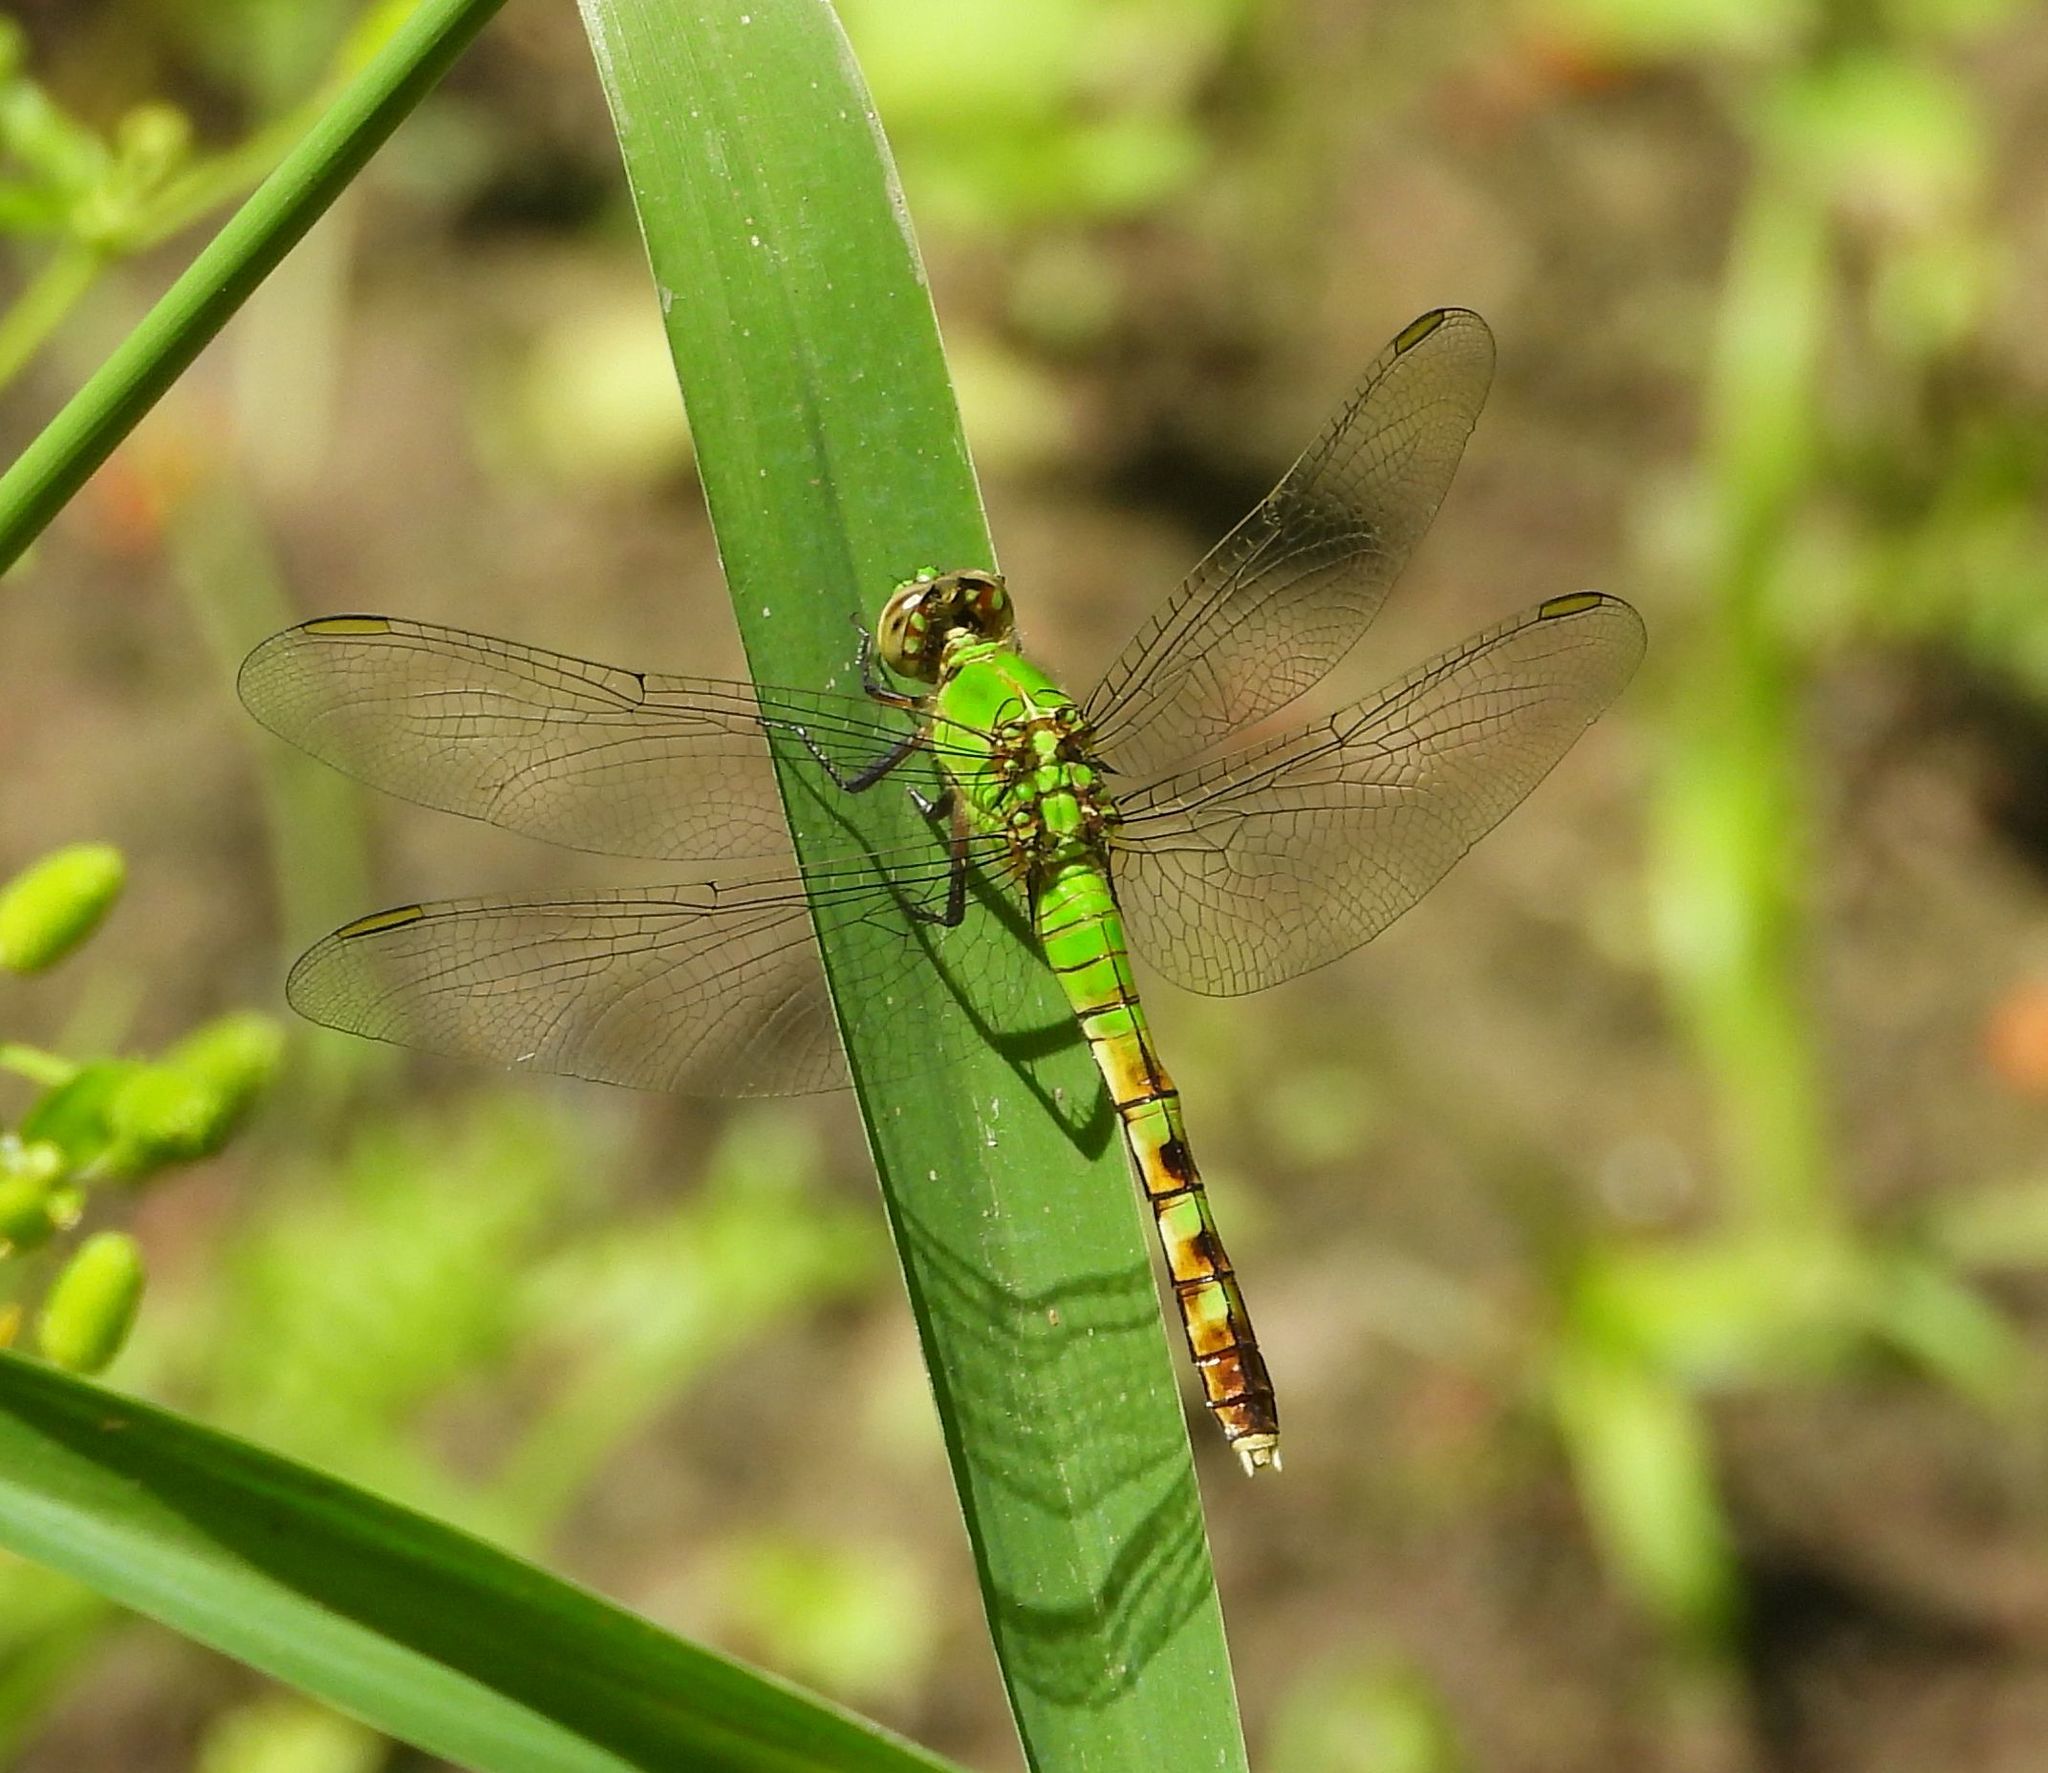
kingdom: Animalia
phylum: Arthropoda
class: Insecta
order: Odonata
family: Libellulidae
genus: Erythemis
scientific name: Erythemis simplicicollis
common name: Eastern pondhawk
